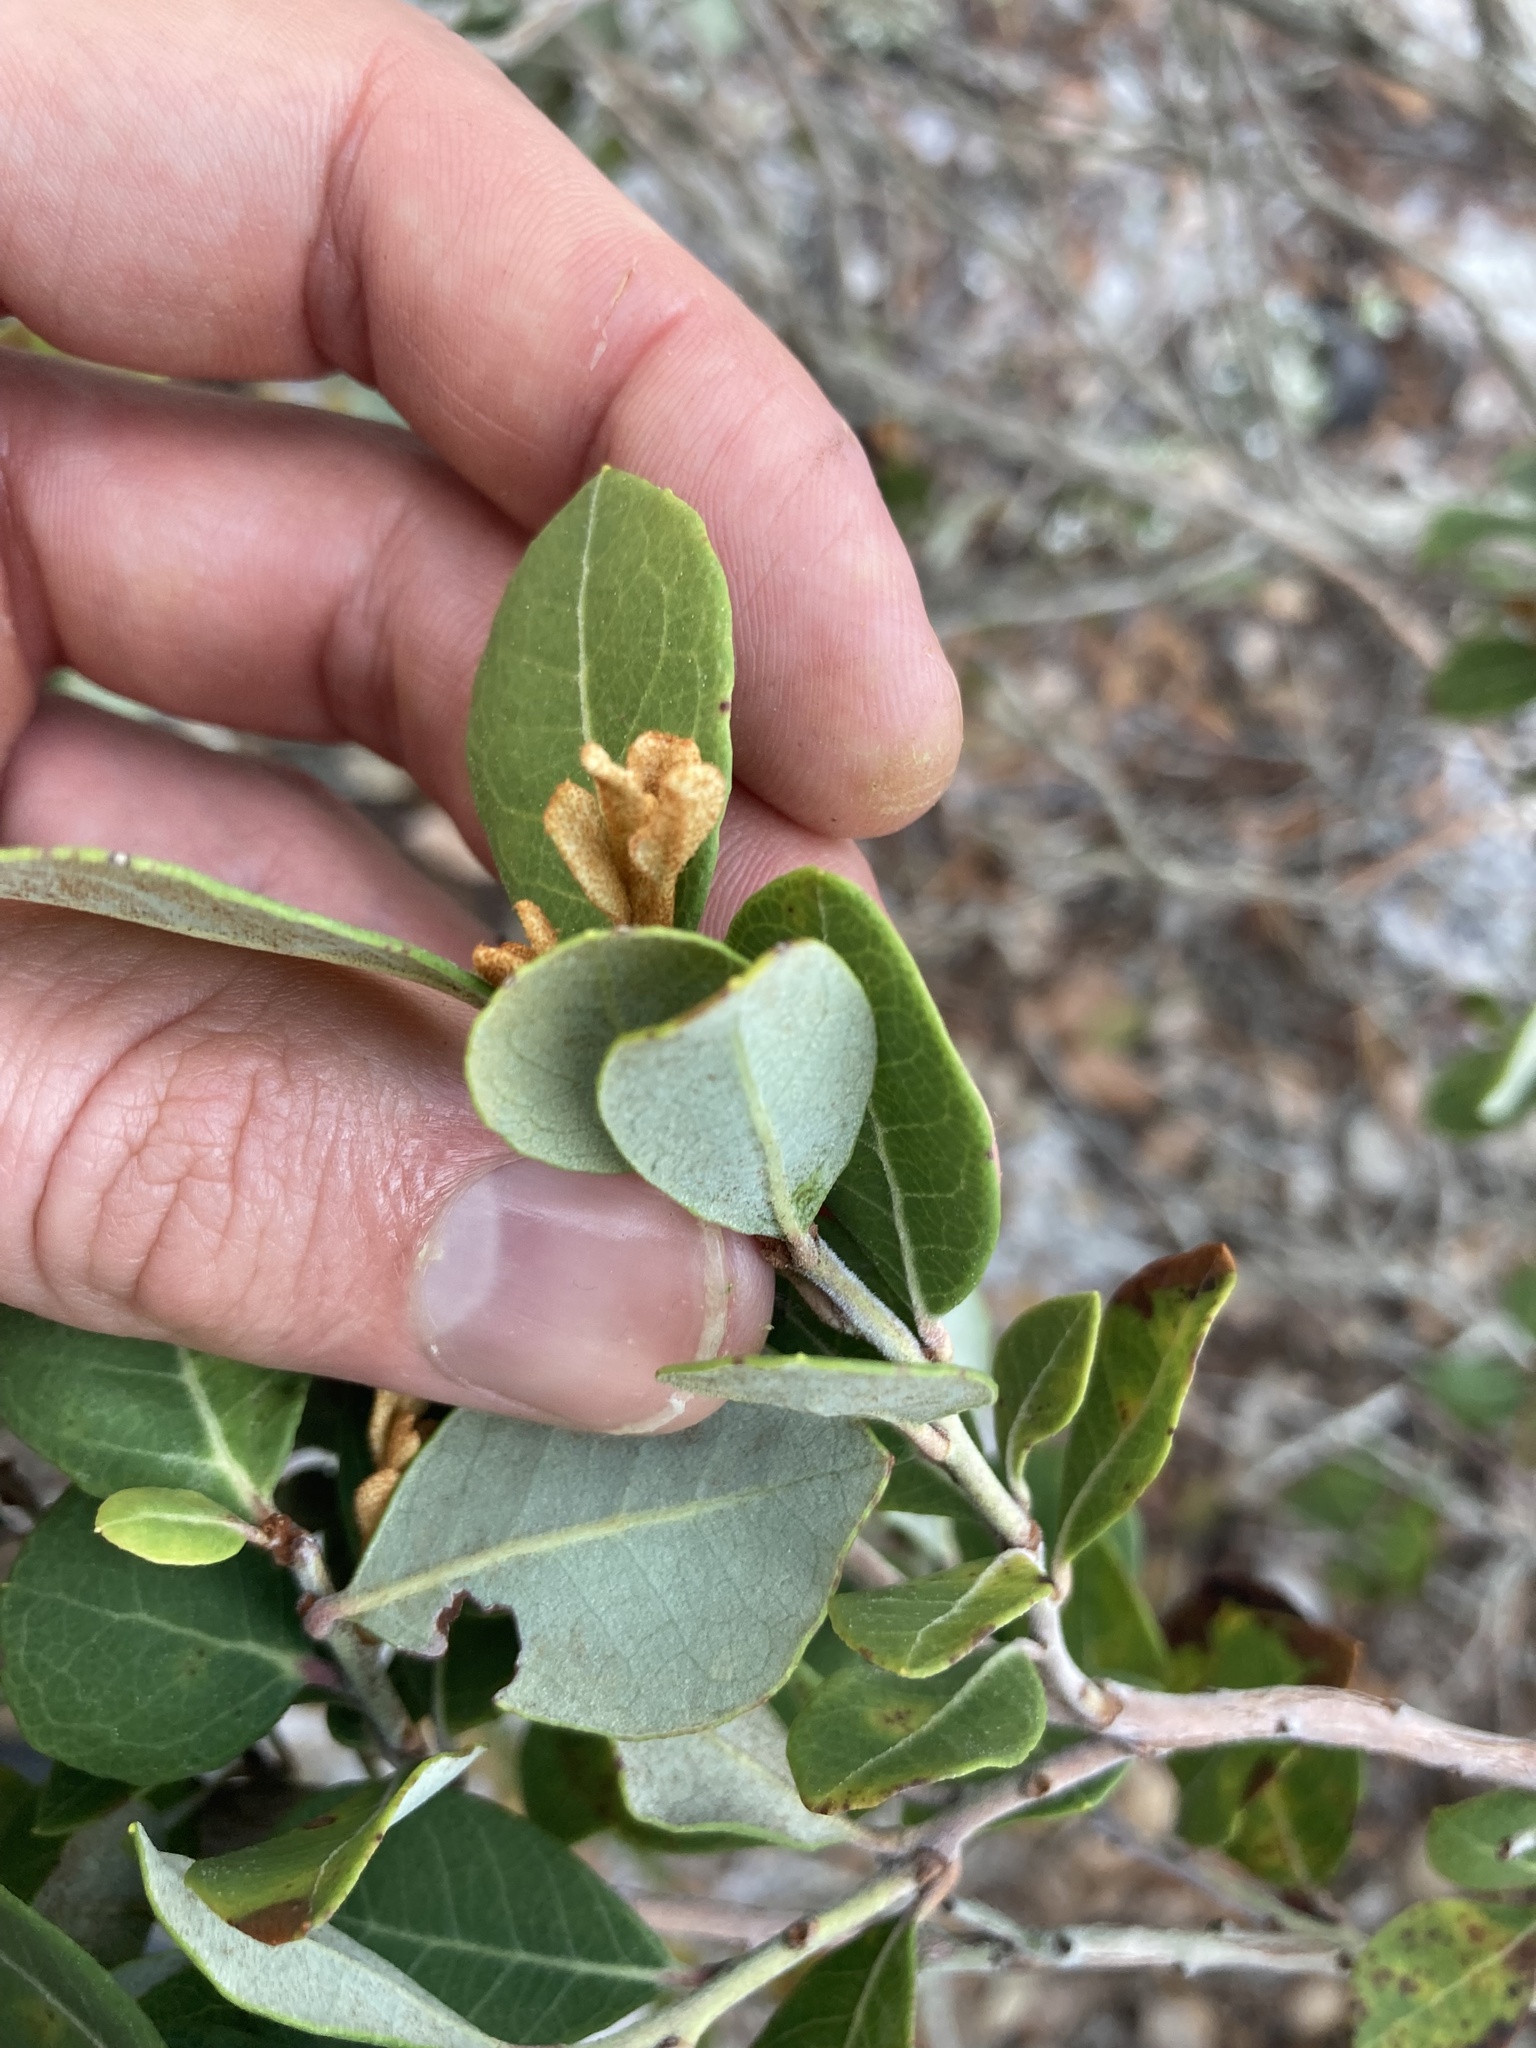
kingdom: Plantae
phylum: Tracheophyta
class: Magnoliopsida
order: Ericales
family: Ericaceae
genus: Lyonia
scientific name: Lyonia fruticosa
